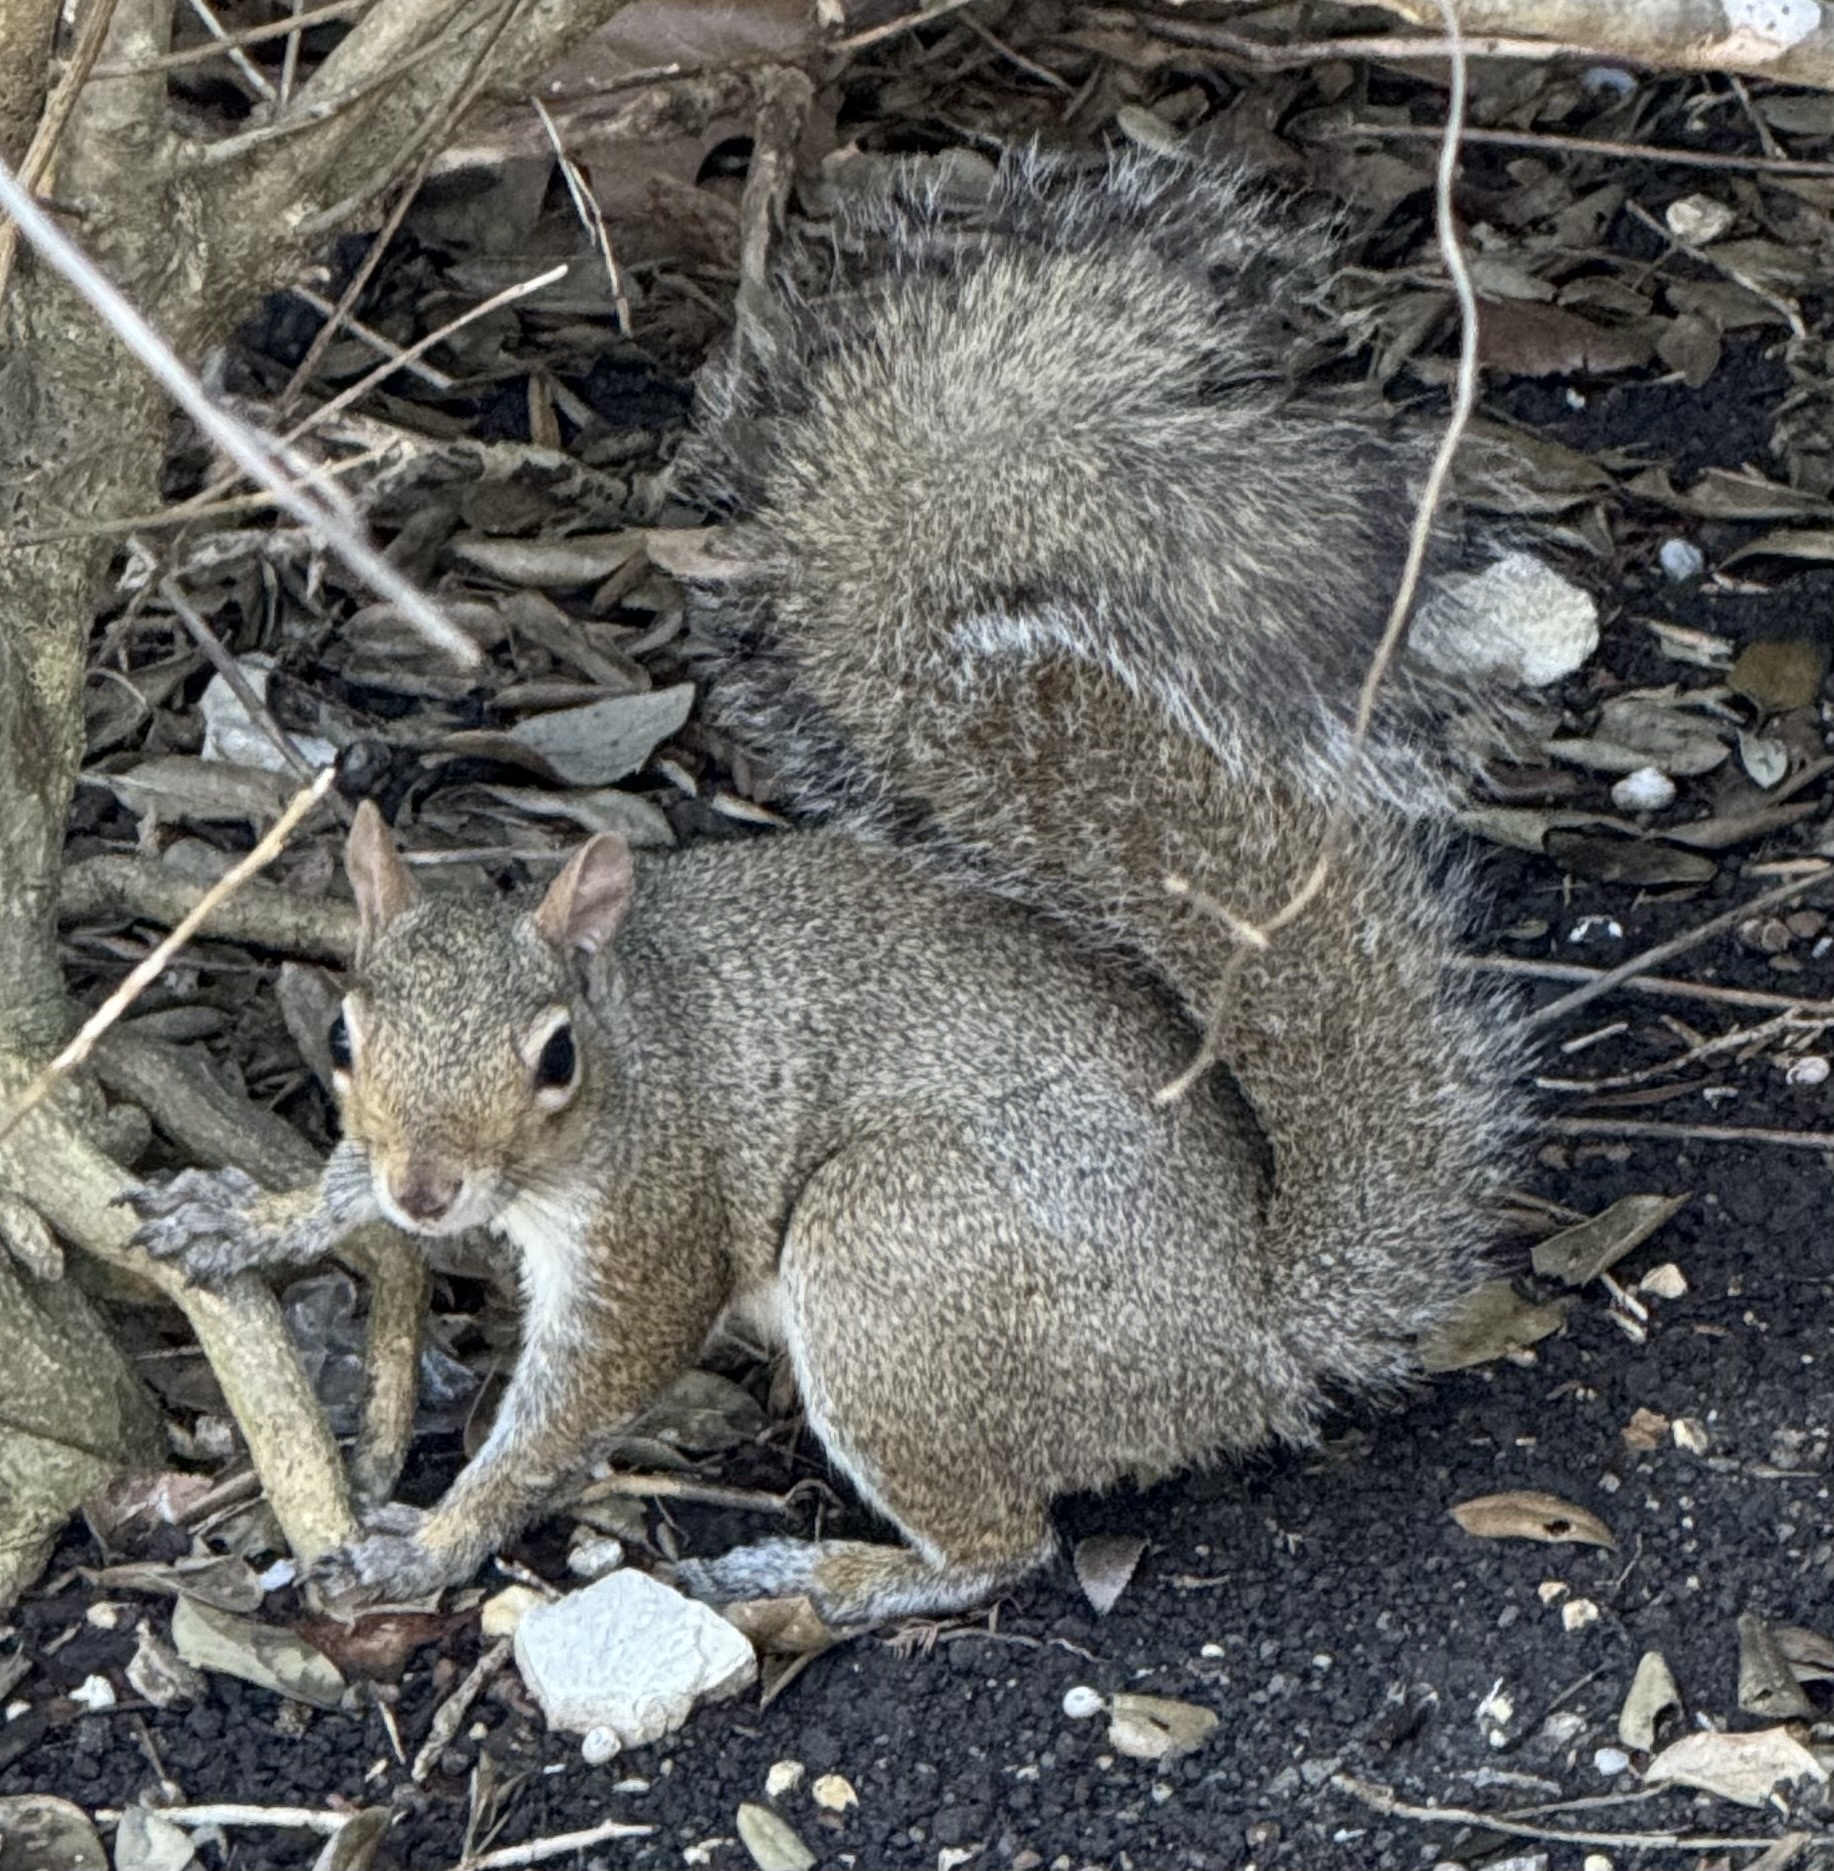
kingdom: Animalia
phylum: Chordata
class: Mammalia
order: Rodentia
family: Sciuridae
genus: Sciurus
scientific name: Sciurus carolinensis
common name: Eastern gray squirrel
